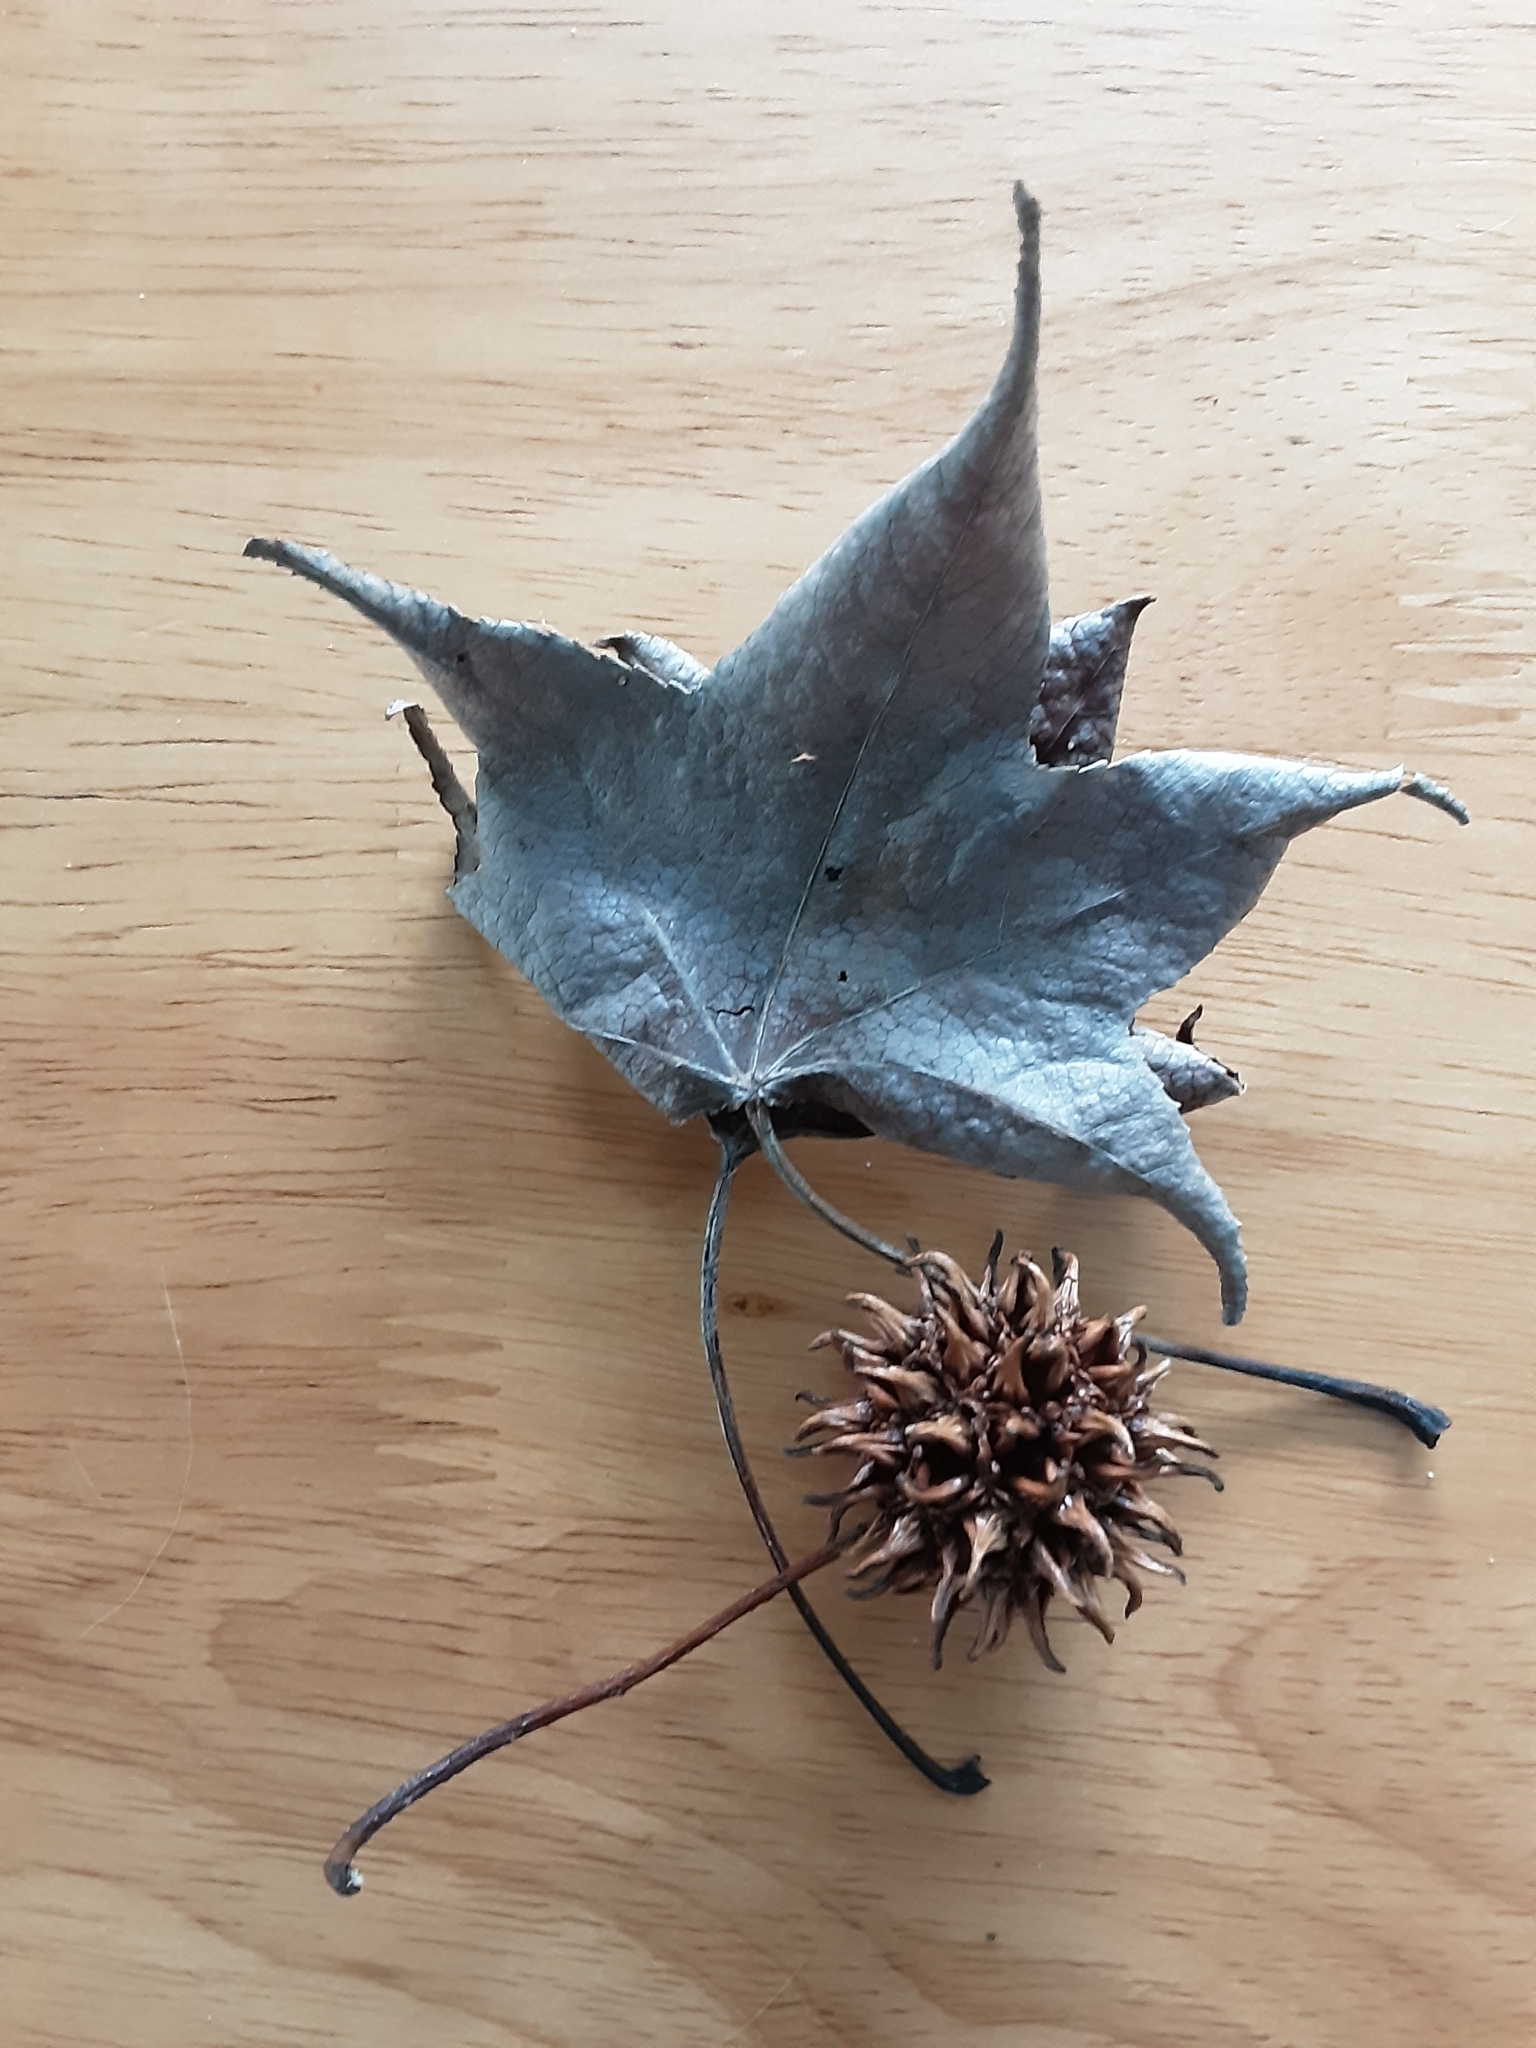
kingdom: Plantae
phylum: Tracheophyta
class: Magnoliopsida
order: Saxifragales
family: Altingiaceae
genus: Liquidambar
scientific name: Liquidambar styraciflua
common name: Sweet gum
